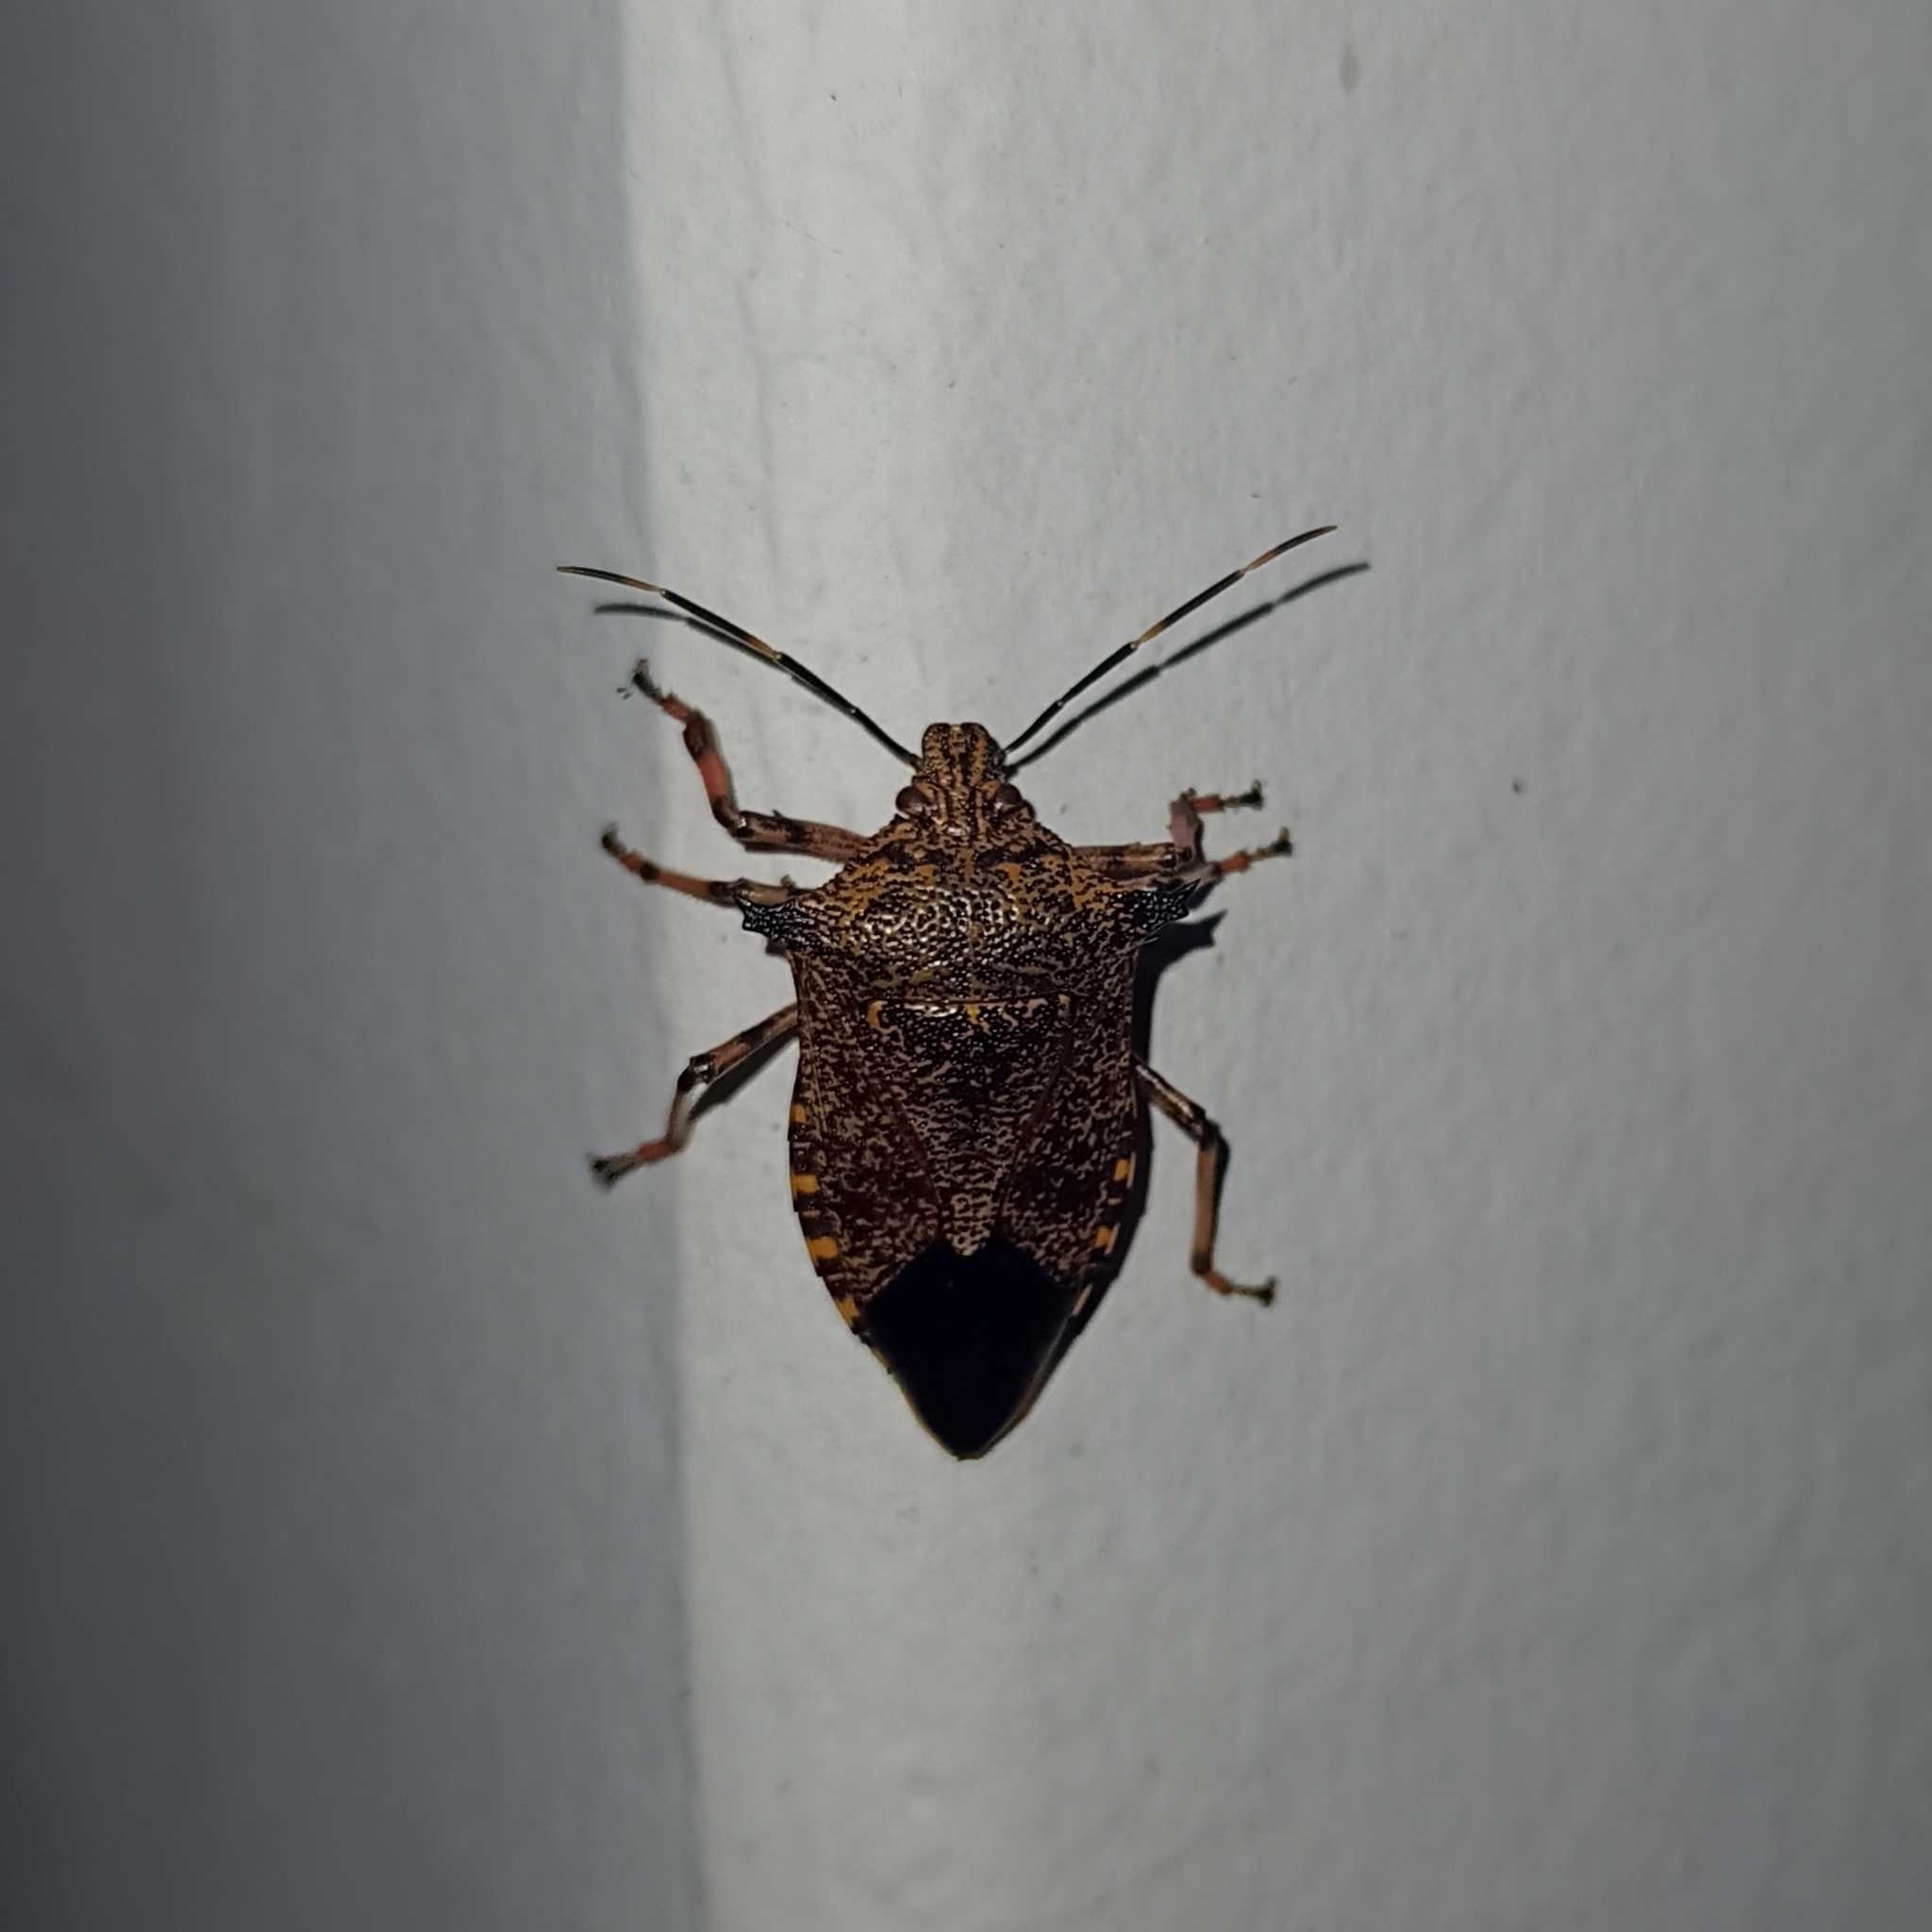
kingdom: Animalia
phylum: Arthropoda
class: Insecta
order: Hemiptera
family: Pentatomidae
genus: Alcaeorrhynchus
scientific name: Alcaeorrhynchus grandis
